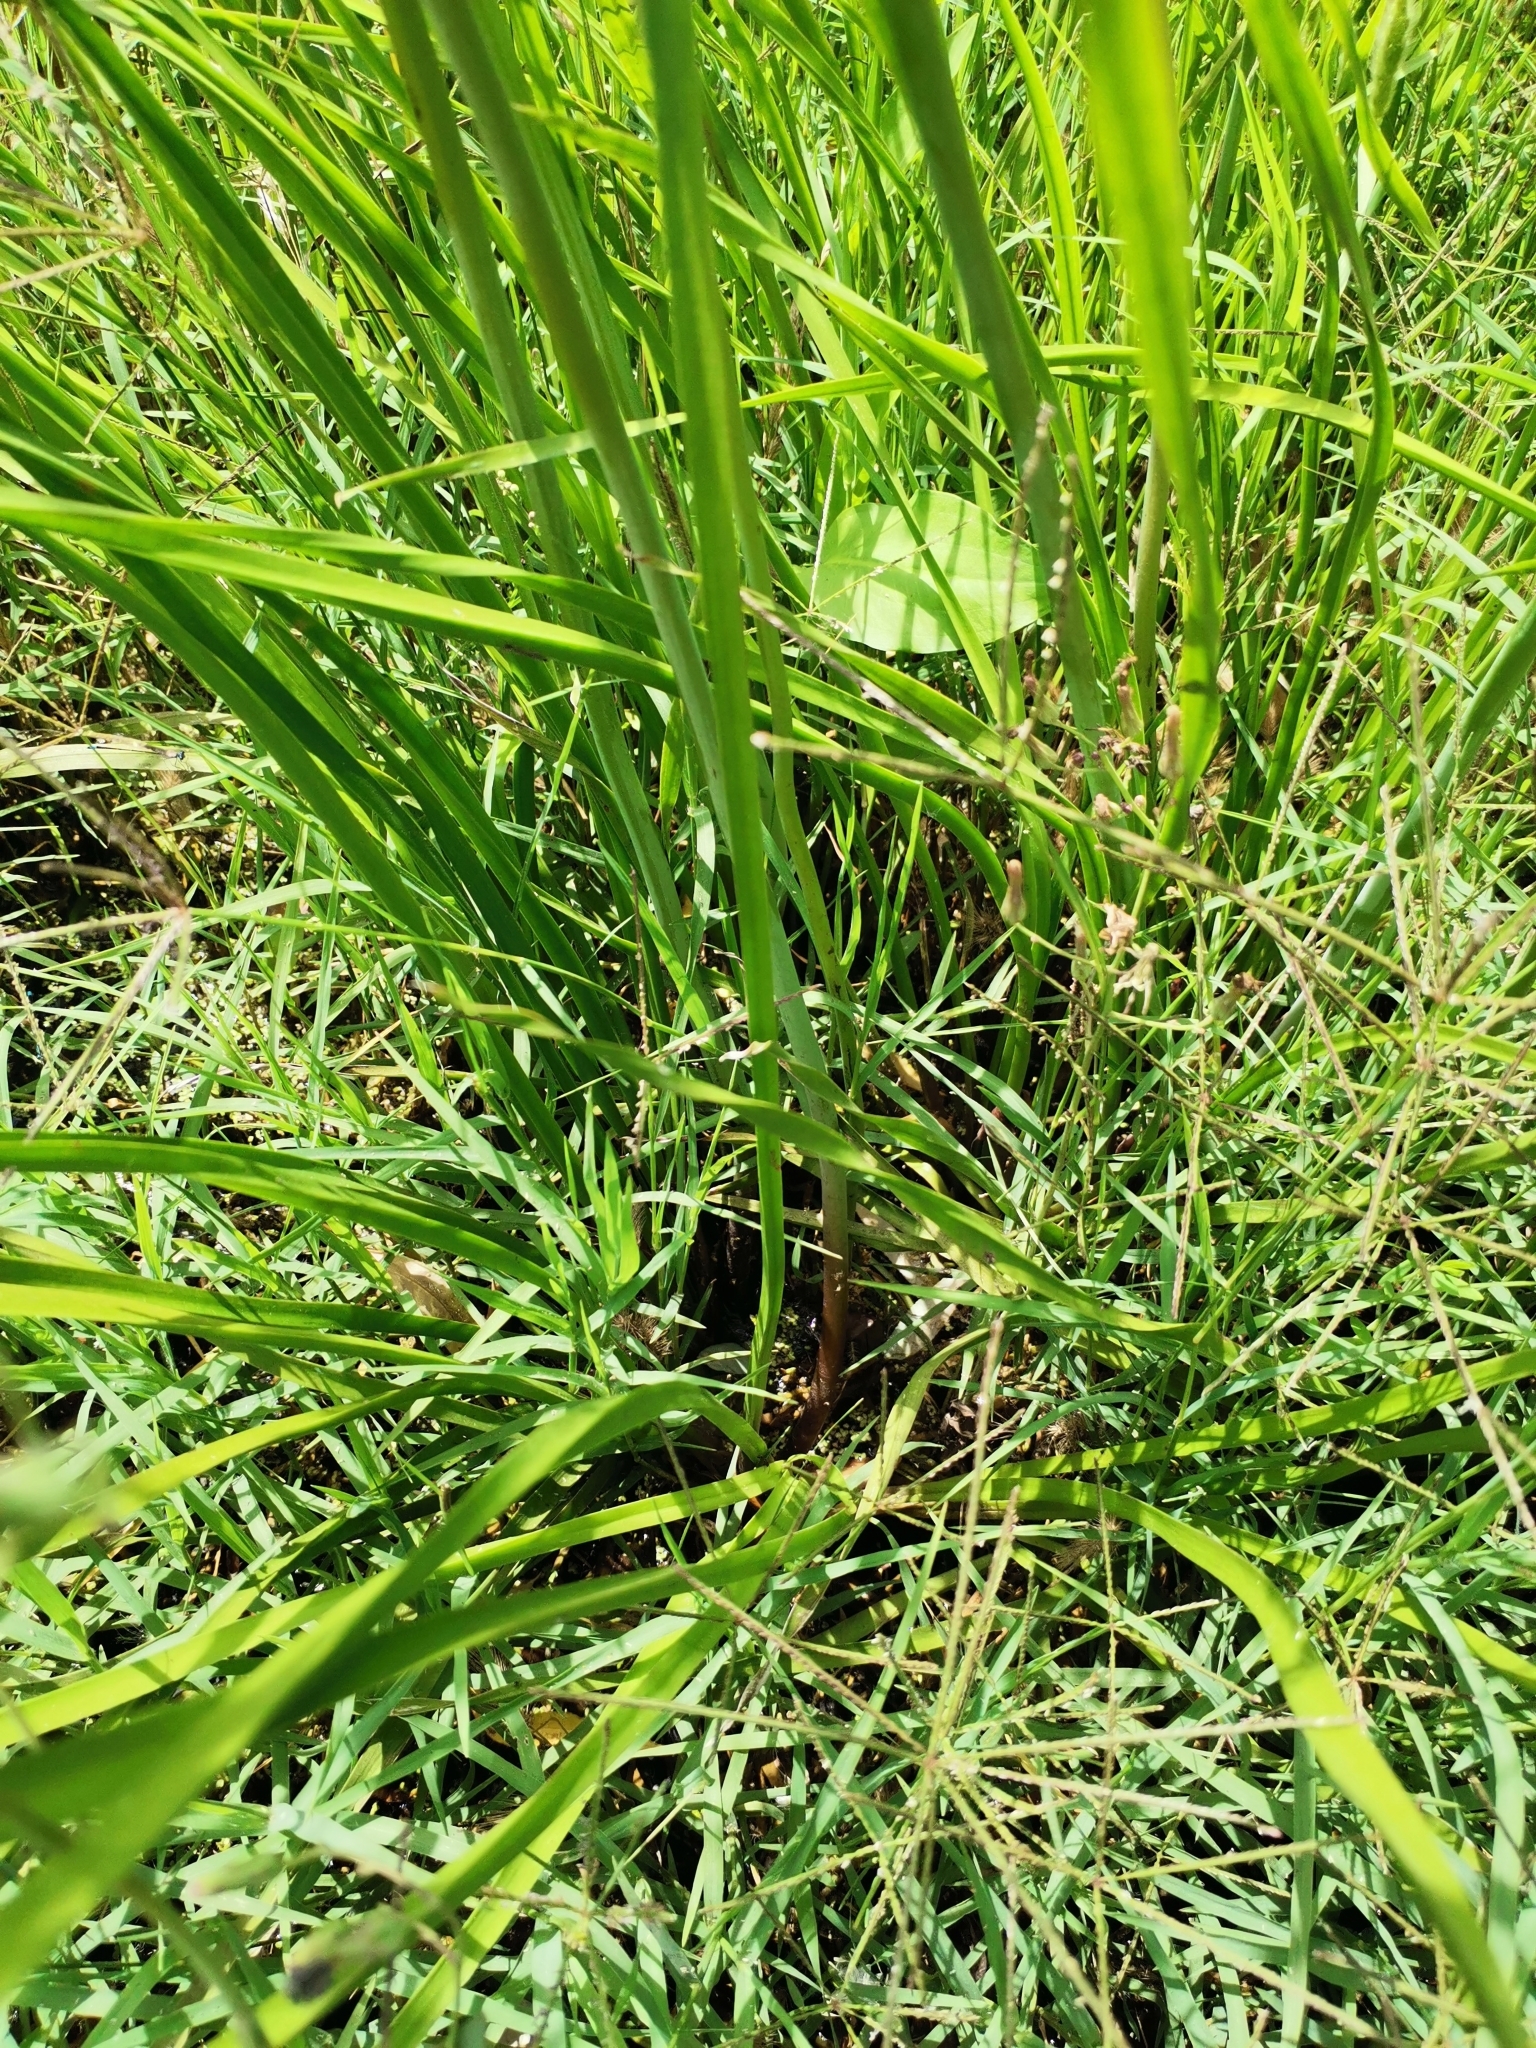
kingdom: Plantae
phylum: Tracheophyta
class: Liliopsida
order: Alismatales
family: Butomaceae
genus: Butomus
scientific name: Butomus umbellatus
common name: Flowering-rush
